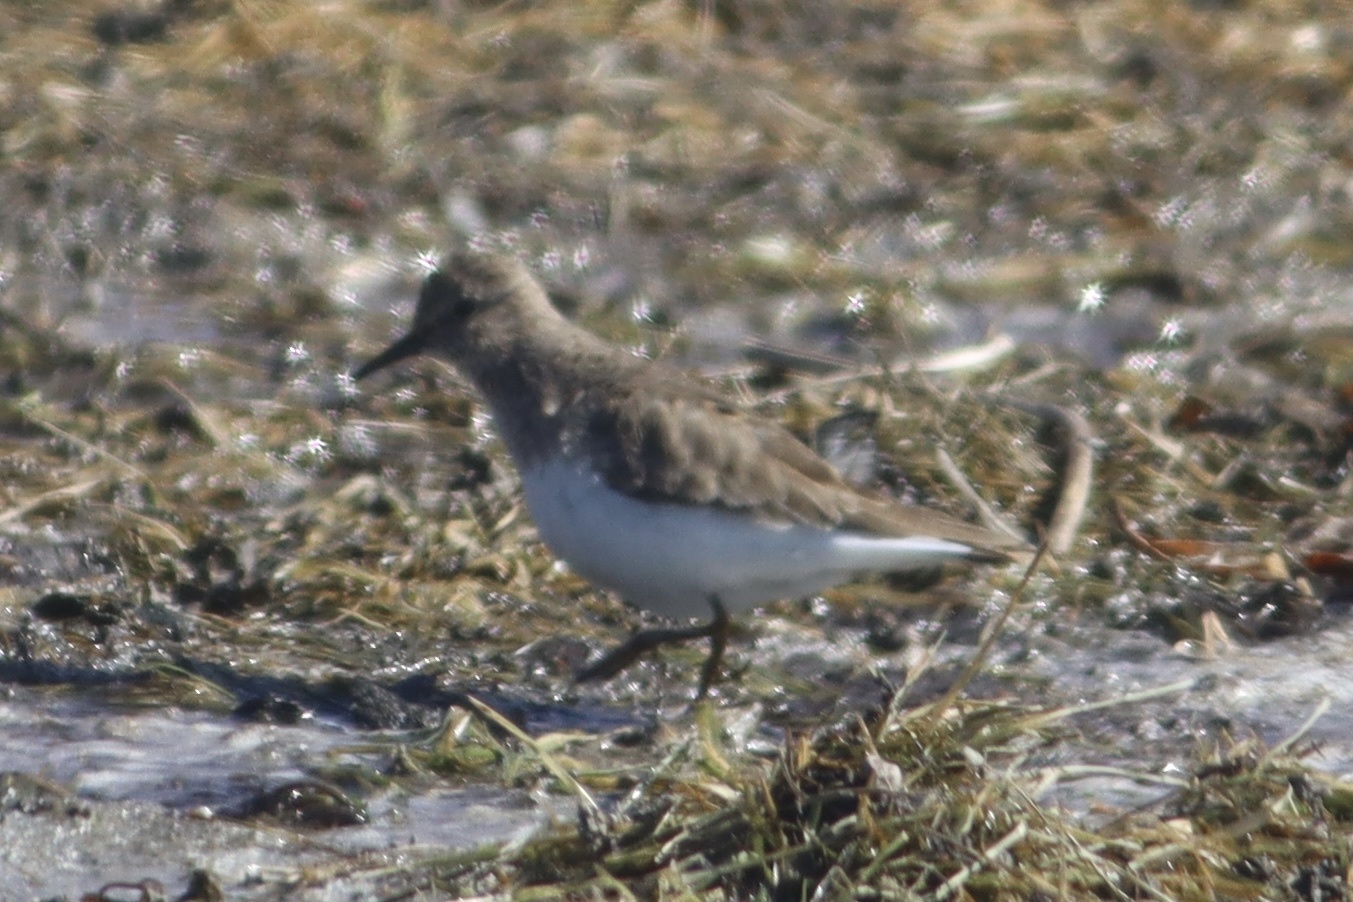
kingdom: Animalia
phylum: Chordata
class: Aves
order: Charadriiformes
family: Scolopacidae
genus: Calidris
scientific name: Calidris temminckii
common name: Temminck's stint
